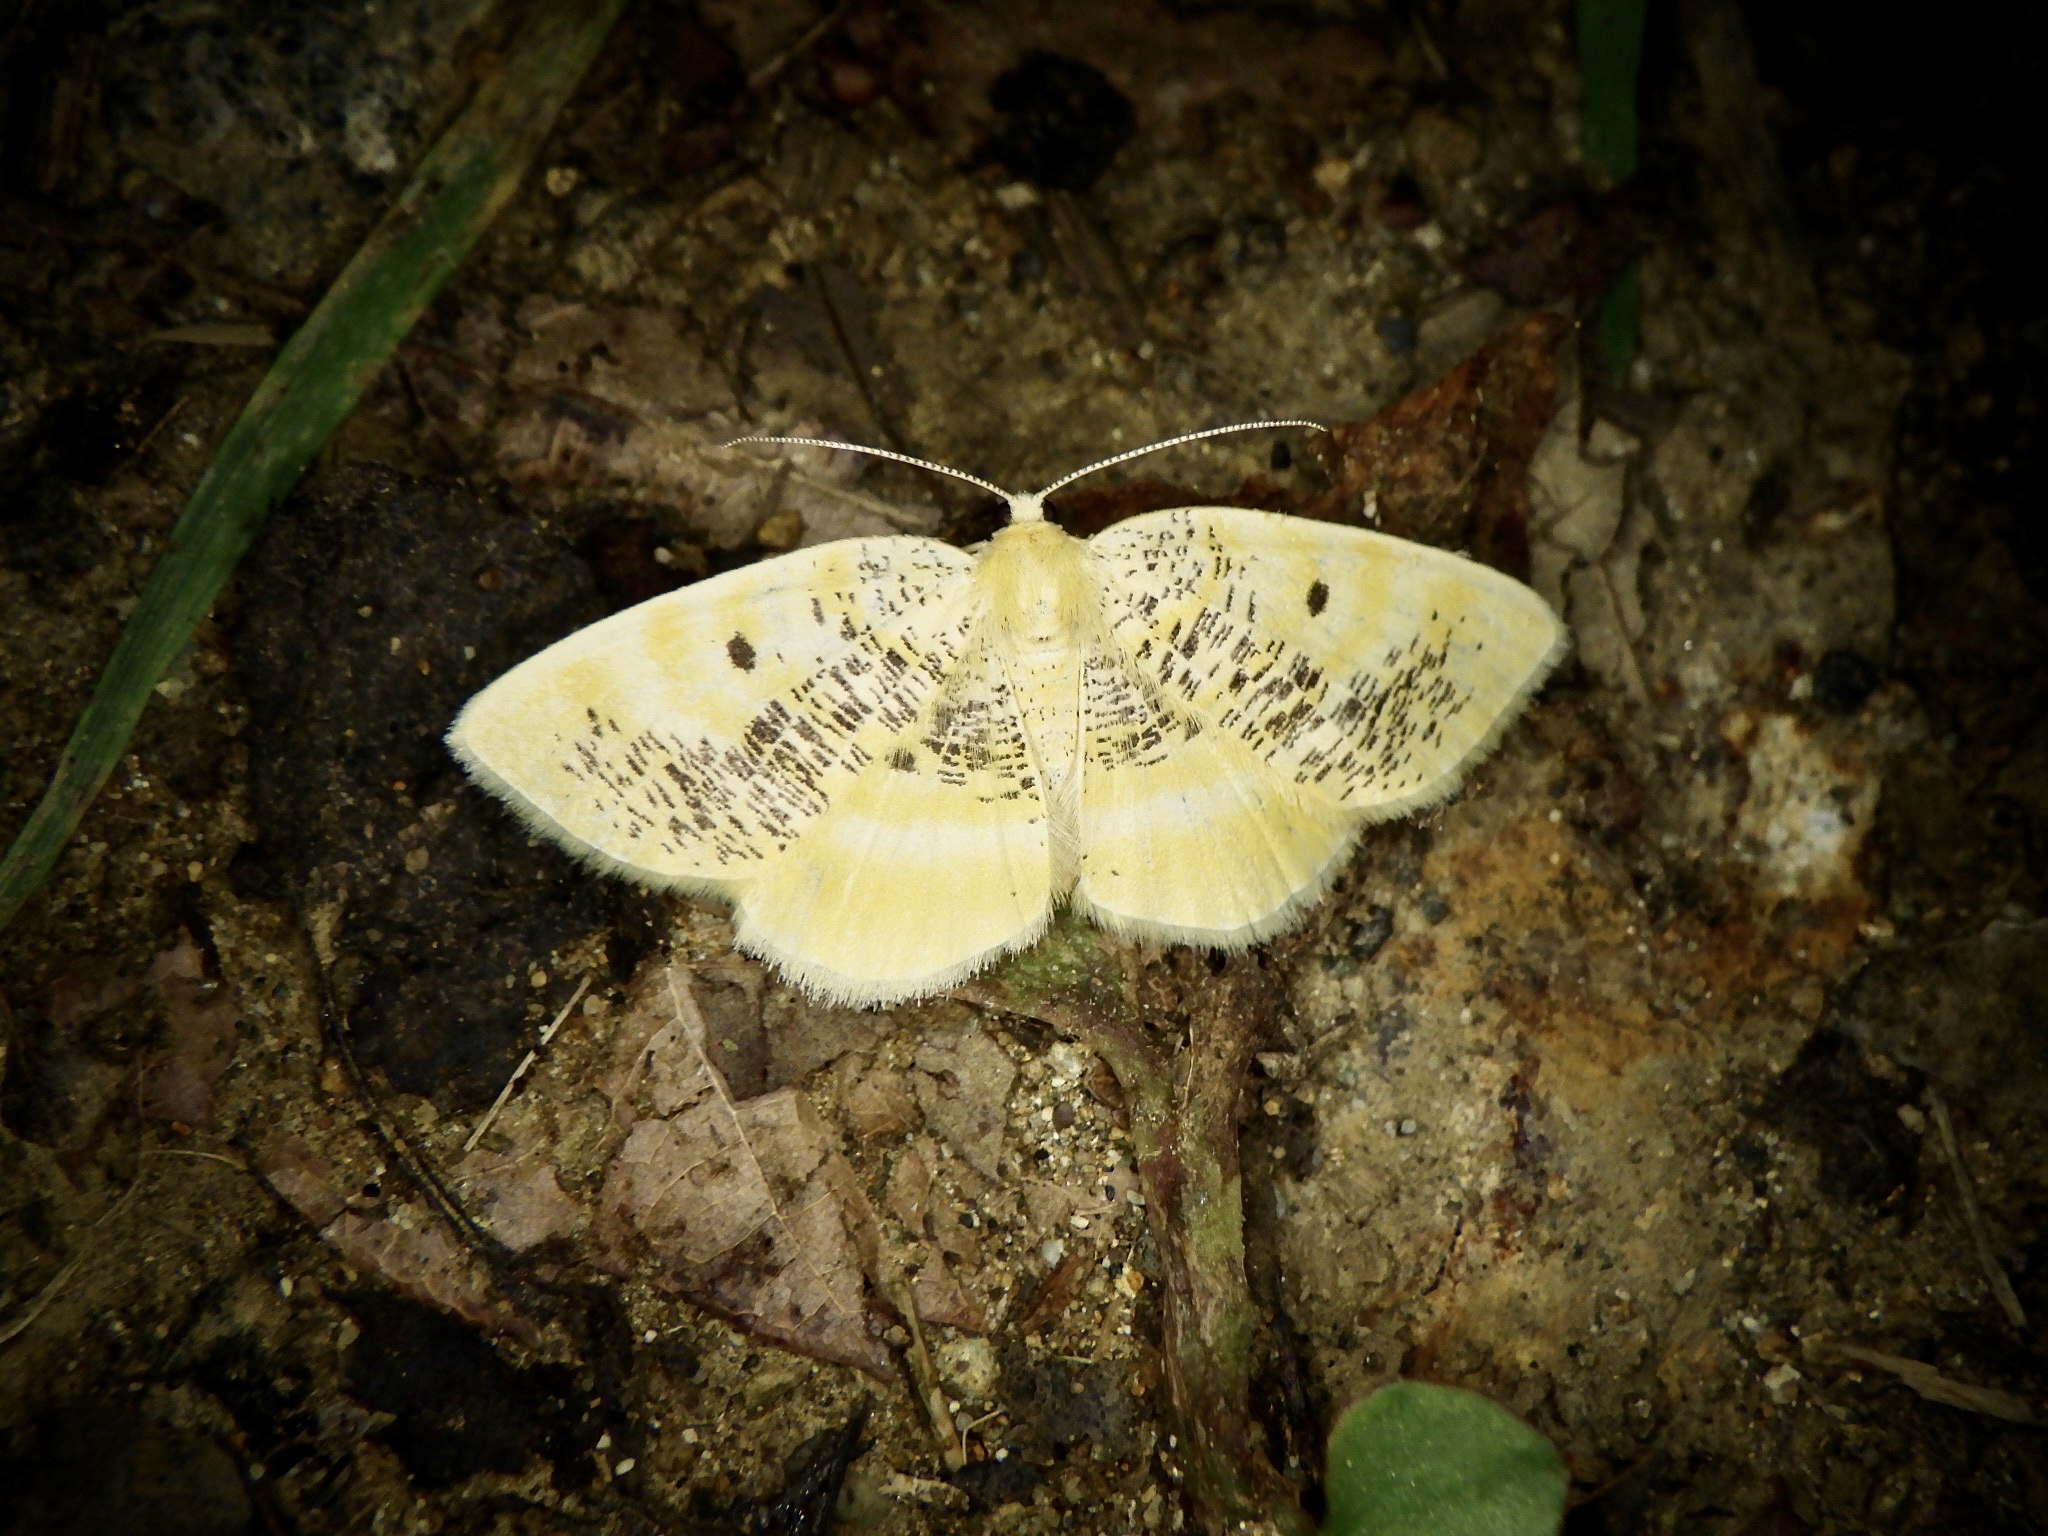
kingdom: Animalia
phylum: Arthropoda
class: Insecta
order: Lepidoptera
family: Geometridae
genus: Euchristophia
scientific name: Euchristophia cumulata
